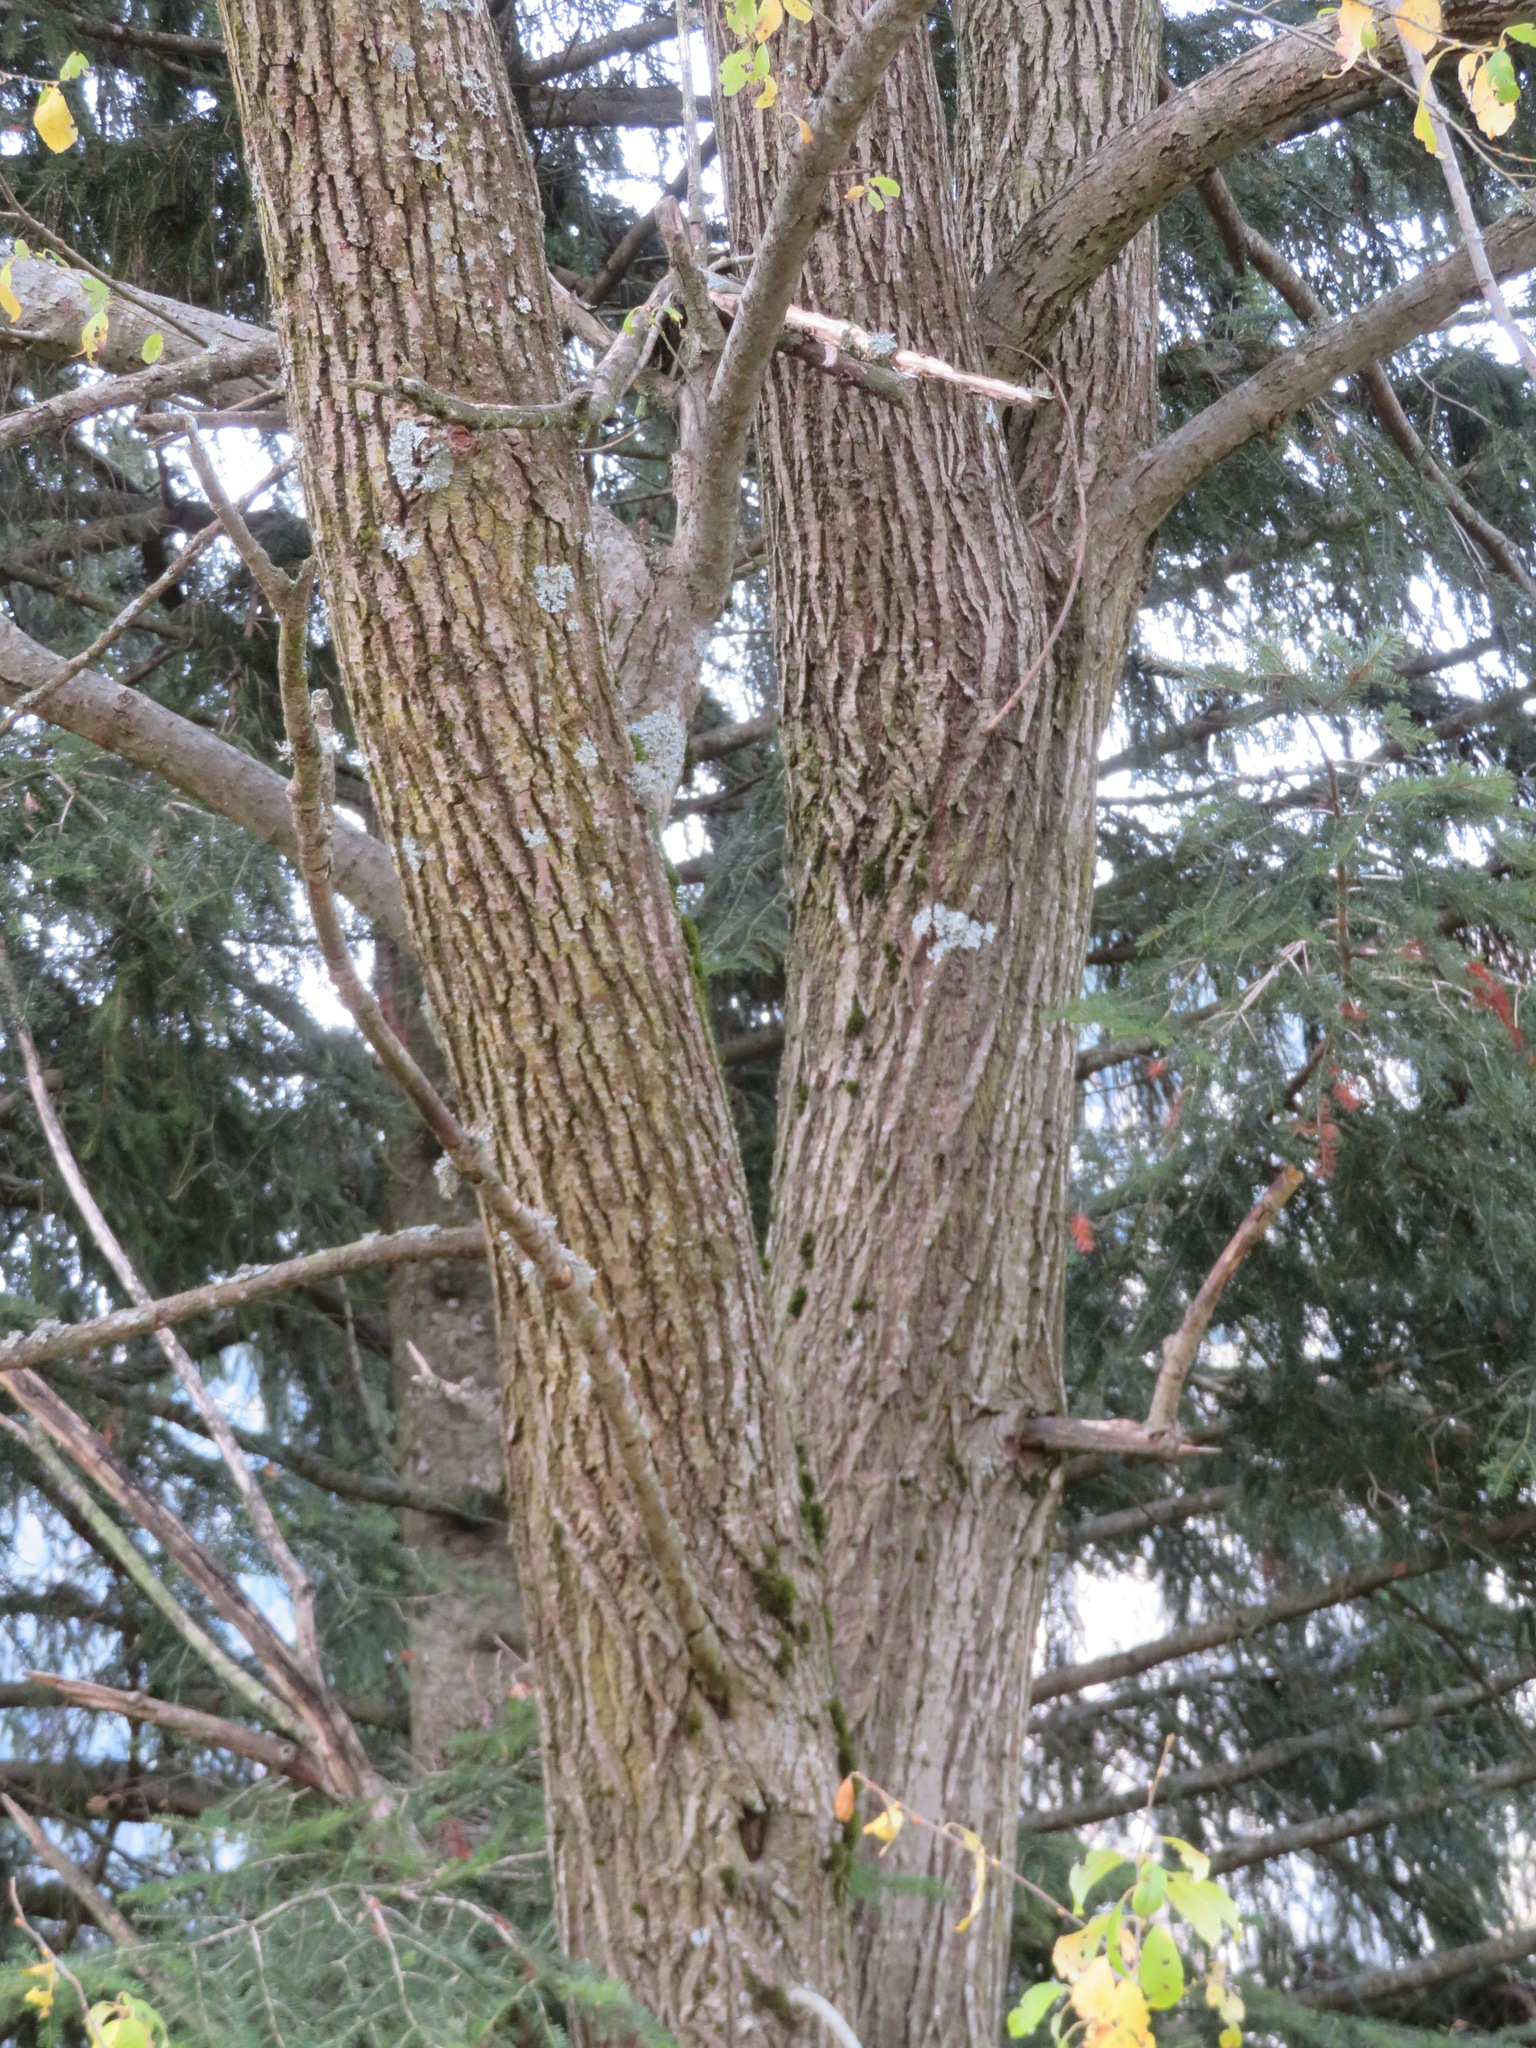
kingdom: Plantae
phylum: Tracheophyta
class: Magnoliopsida
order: Malpighiales
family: Salicaceae
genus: Salix
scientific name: Salix caprea
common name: Goat willow
